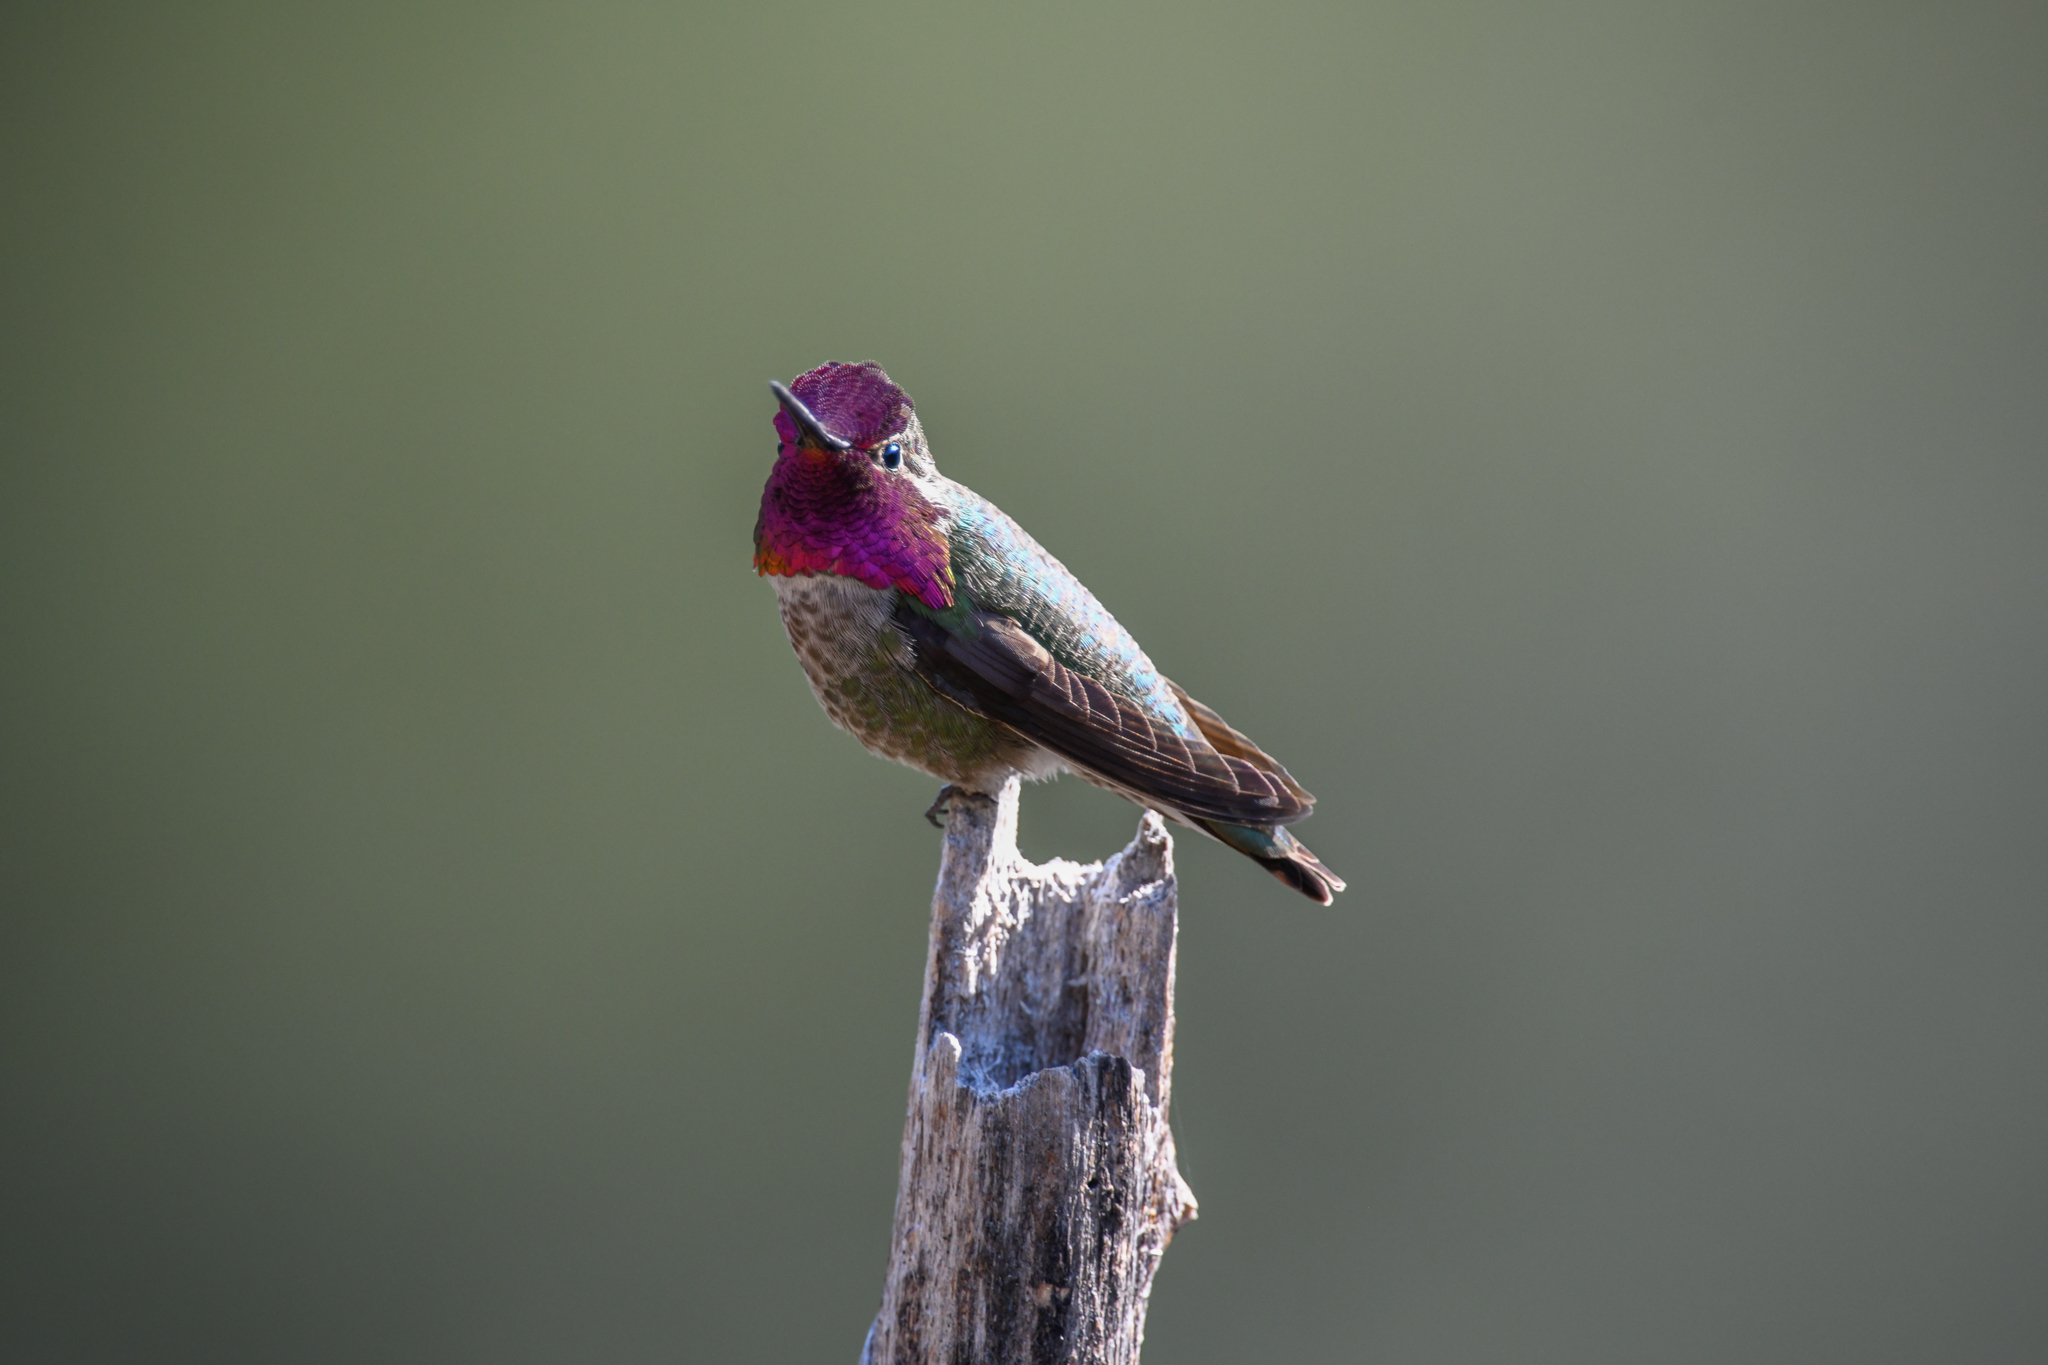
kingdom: Animalia
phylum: Chordata
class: Aves
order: Apodiformes
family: Trochilidae
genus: Calypte
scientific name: Calypte anna
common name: Anna's hummingbird
